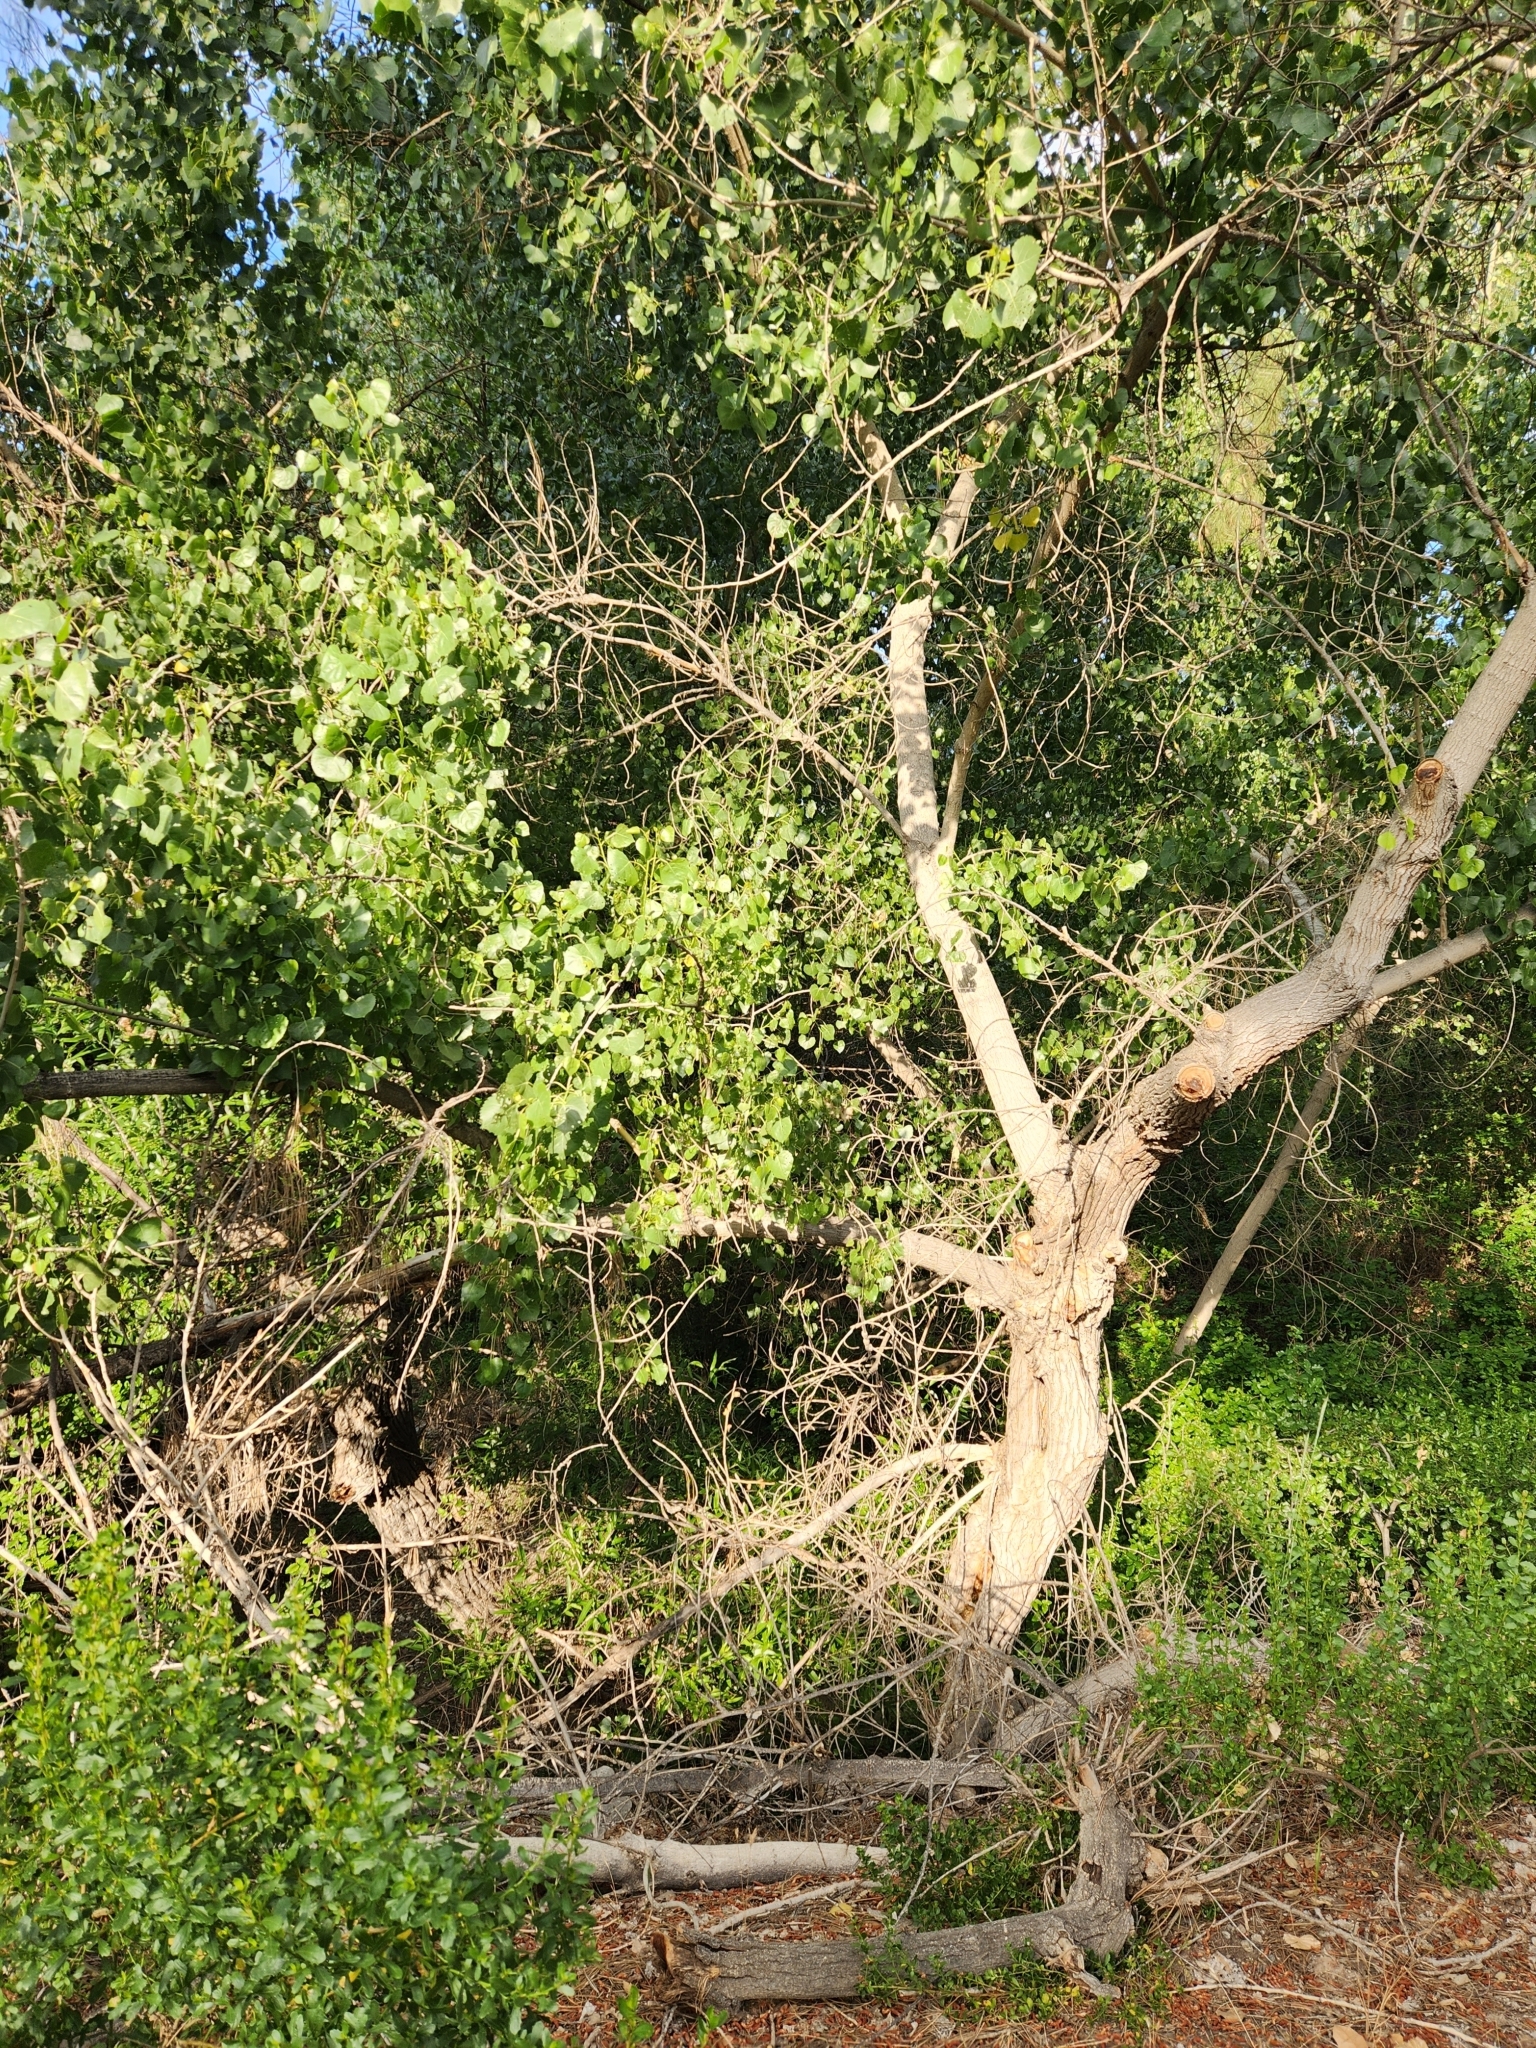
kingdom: Plantae
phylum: Tracheophyta
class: Magnoliopsida
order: Malpighiales
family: Salicaceae
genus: Populus
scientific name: Populus fremontii
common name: Fremont's cottonwood
